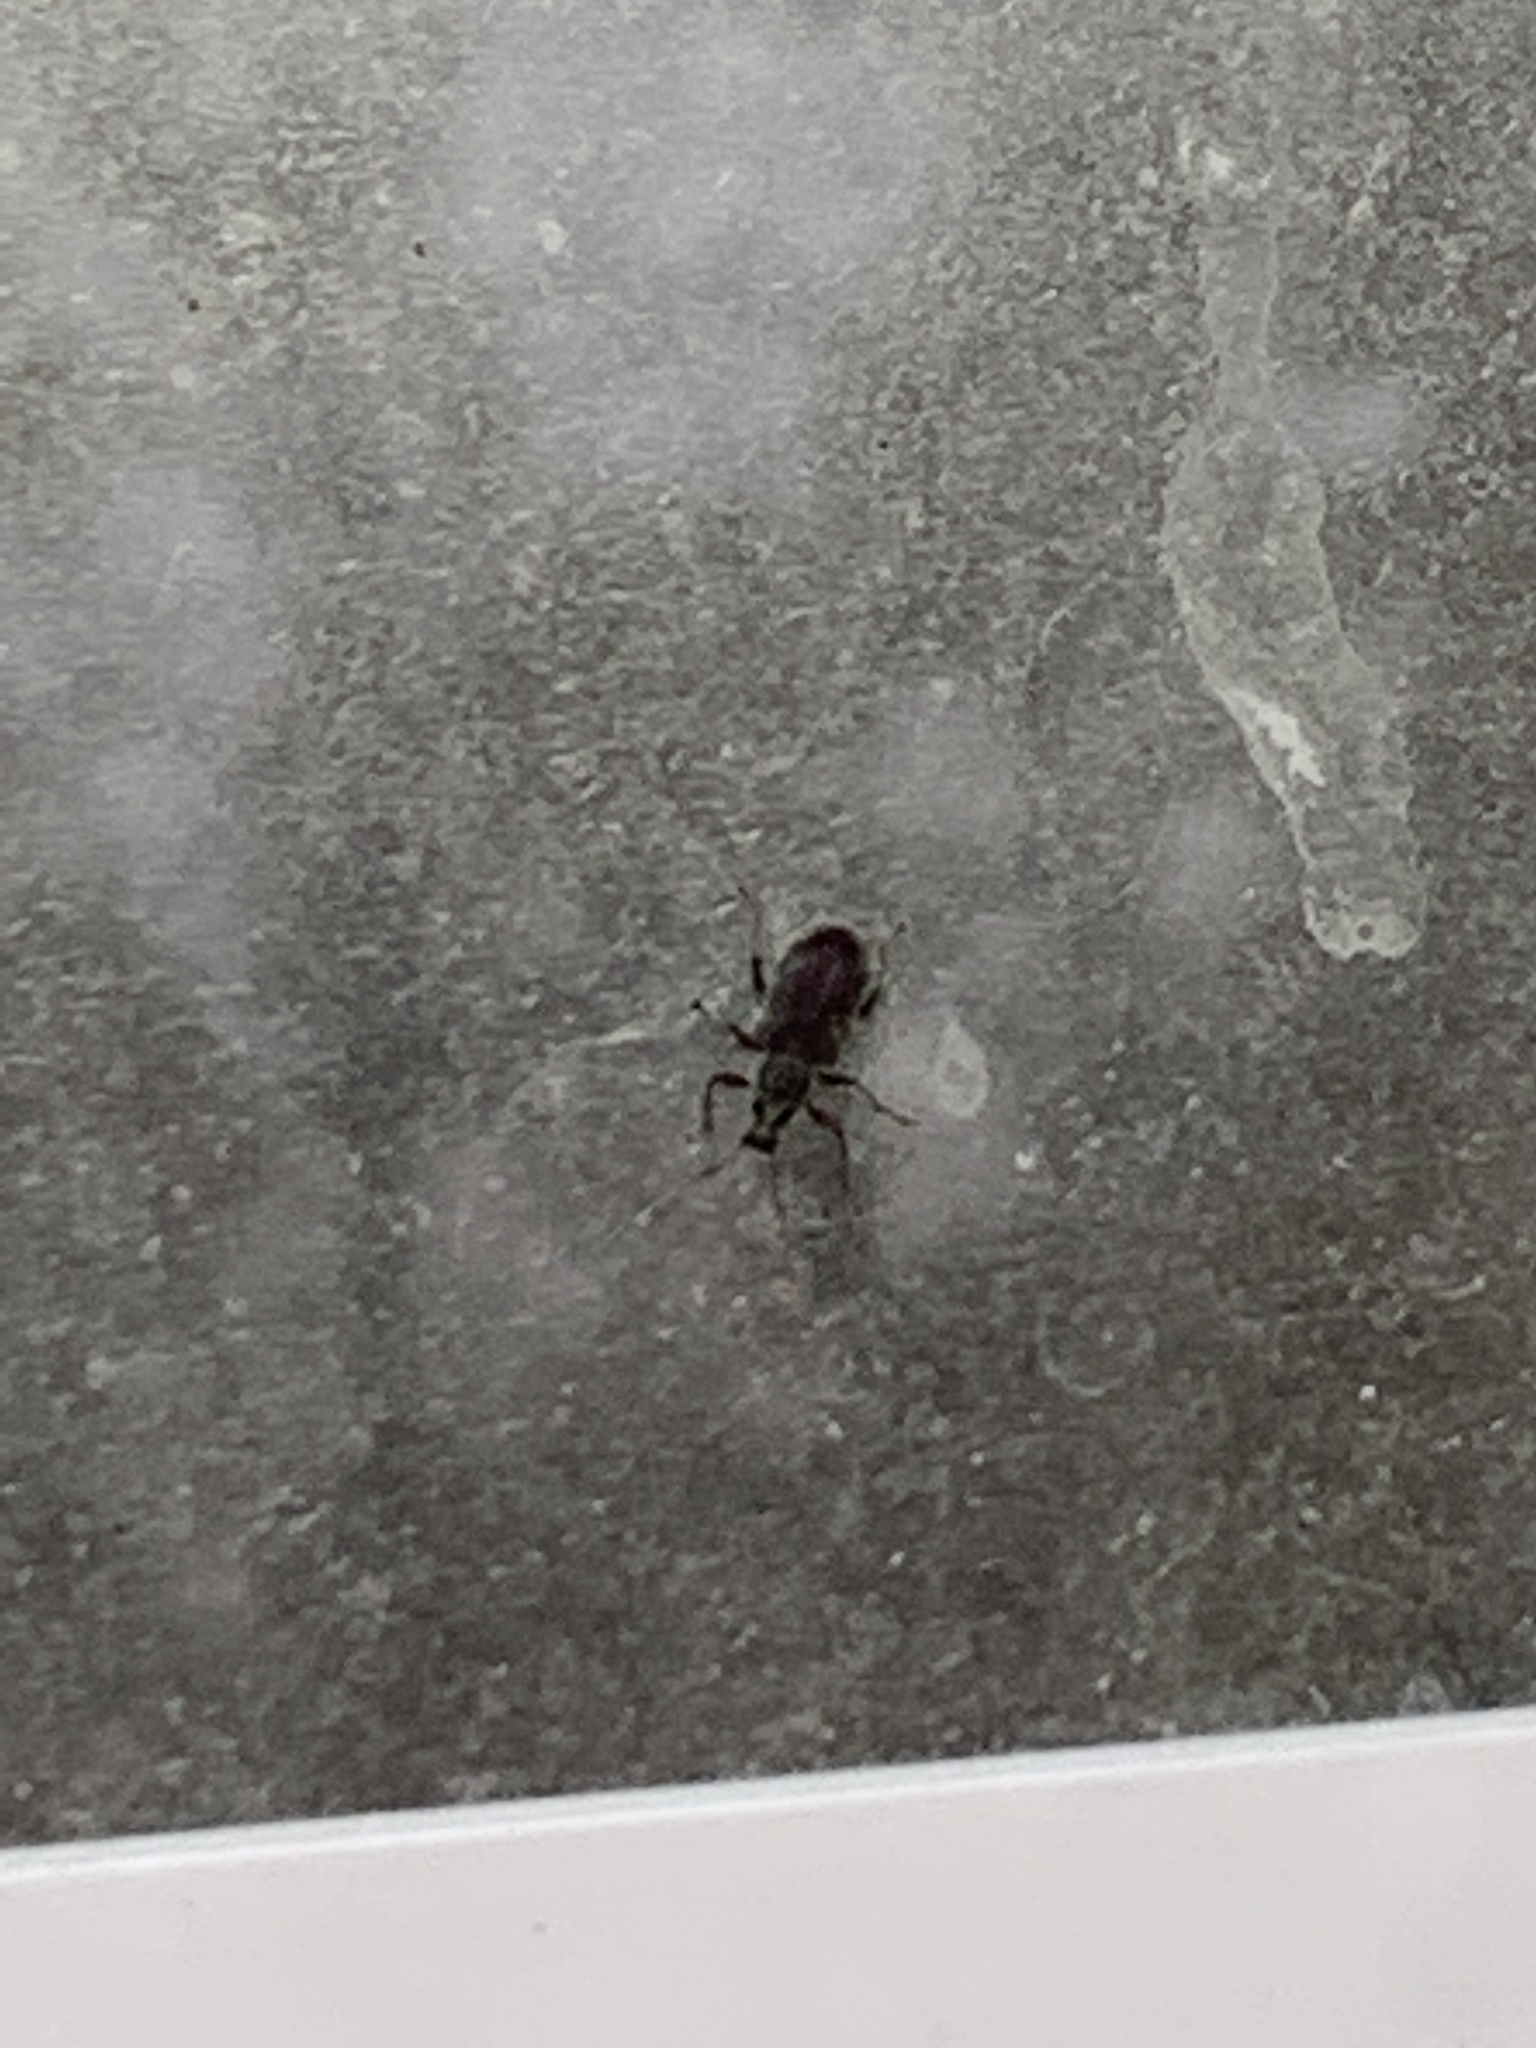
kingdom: Animalia
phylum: Arthropoda
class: Insecta
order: Coleoptera
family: Curculionidae
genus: Cyrtepistomus
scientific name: Cyrtepistomus castaneus
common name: Weevil
